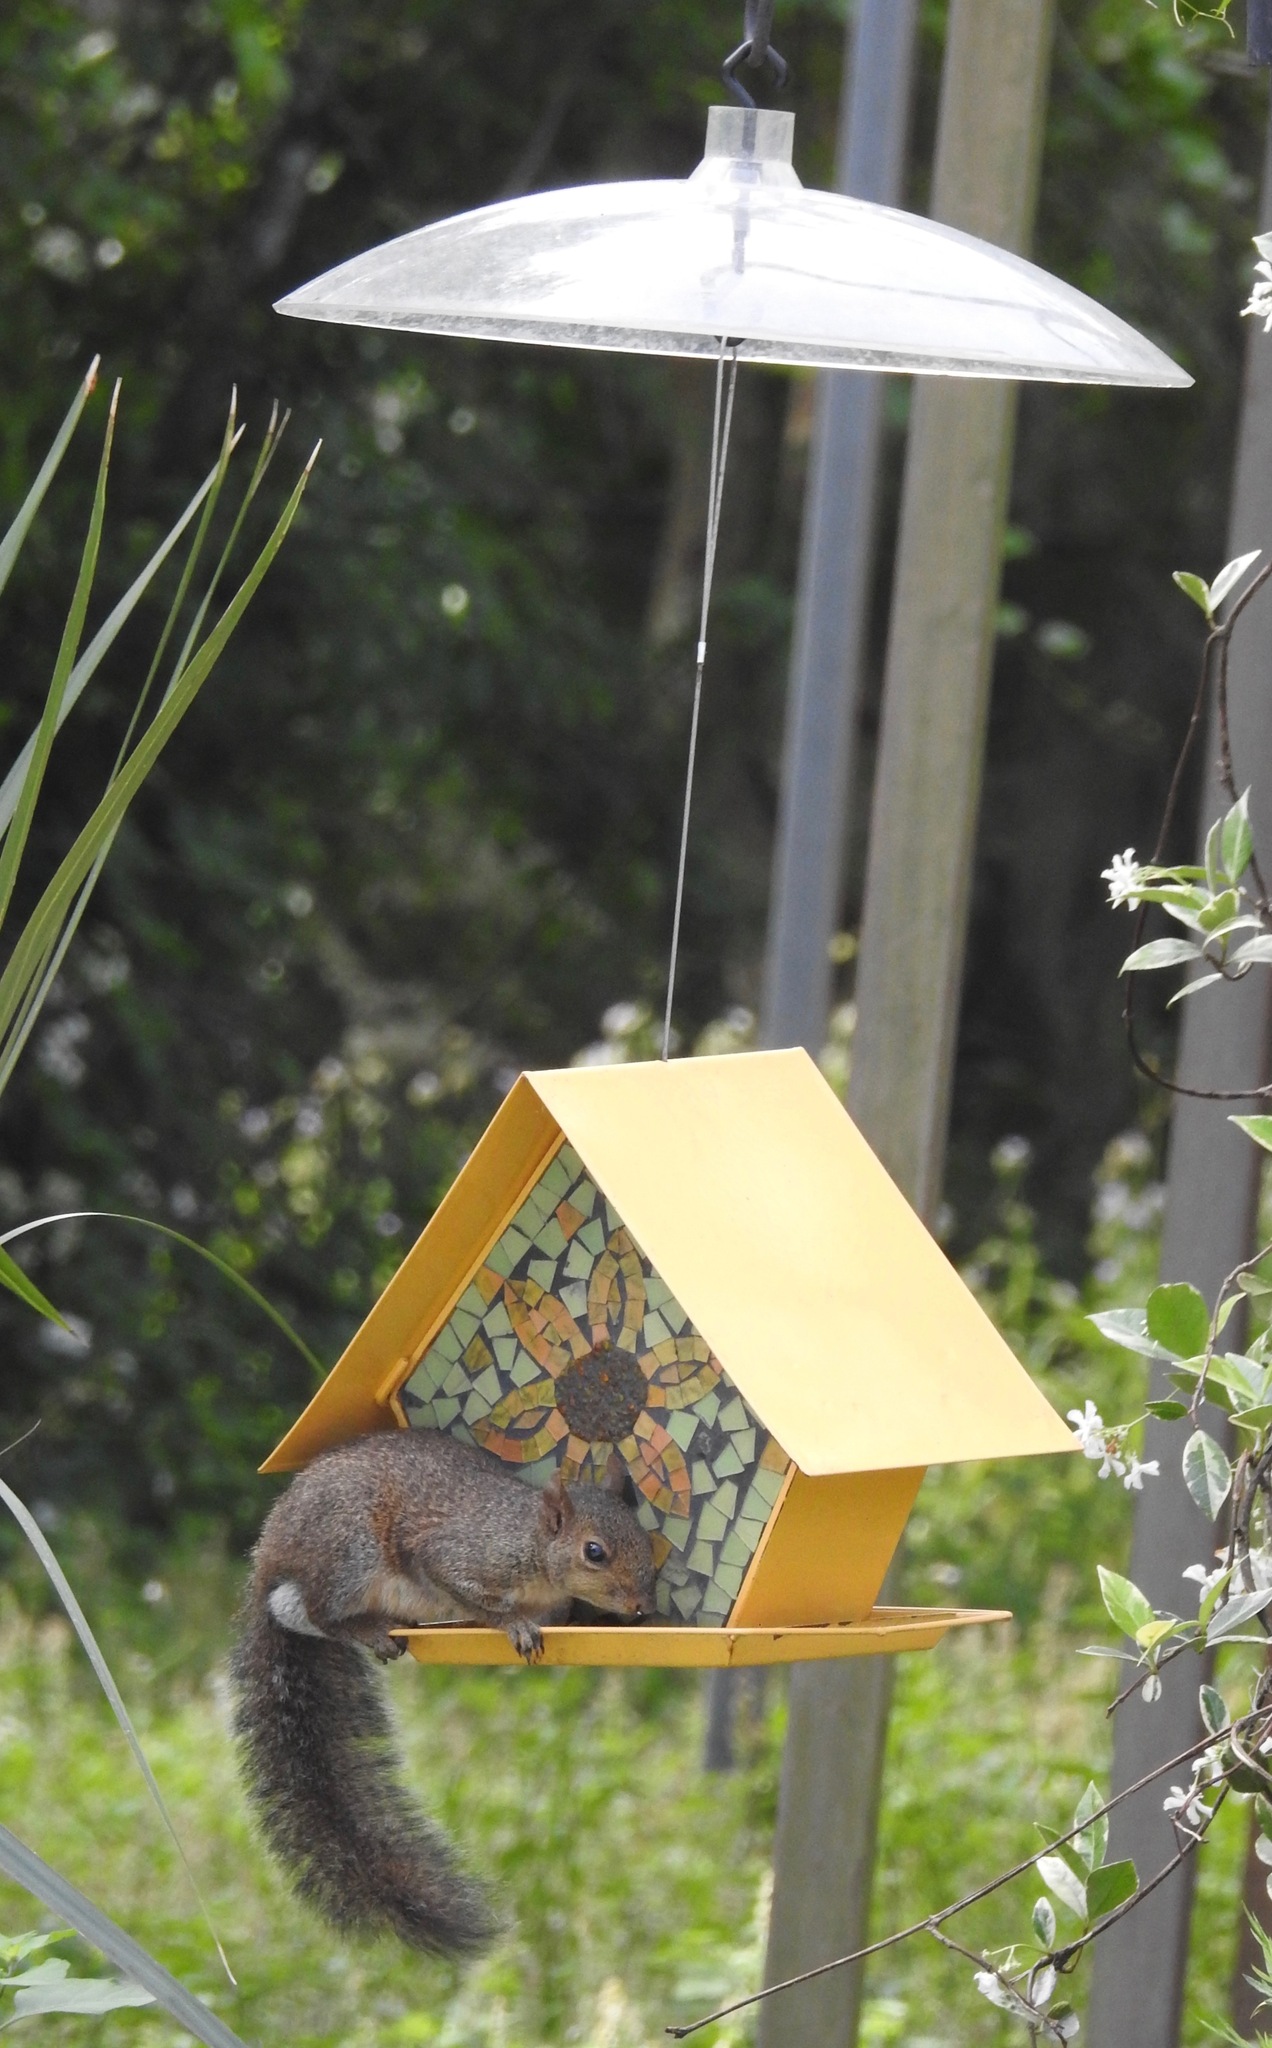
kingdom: Animalia
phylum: Chordata
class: Mammalia
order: Rodentia
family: Sciuridae
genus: Sciurus
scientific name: Sciurus carolinensis
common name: Eastern gray squirrel
